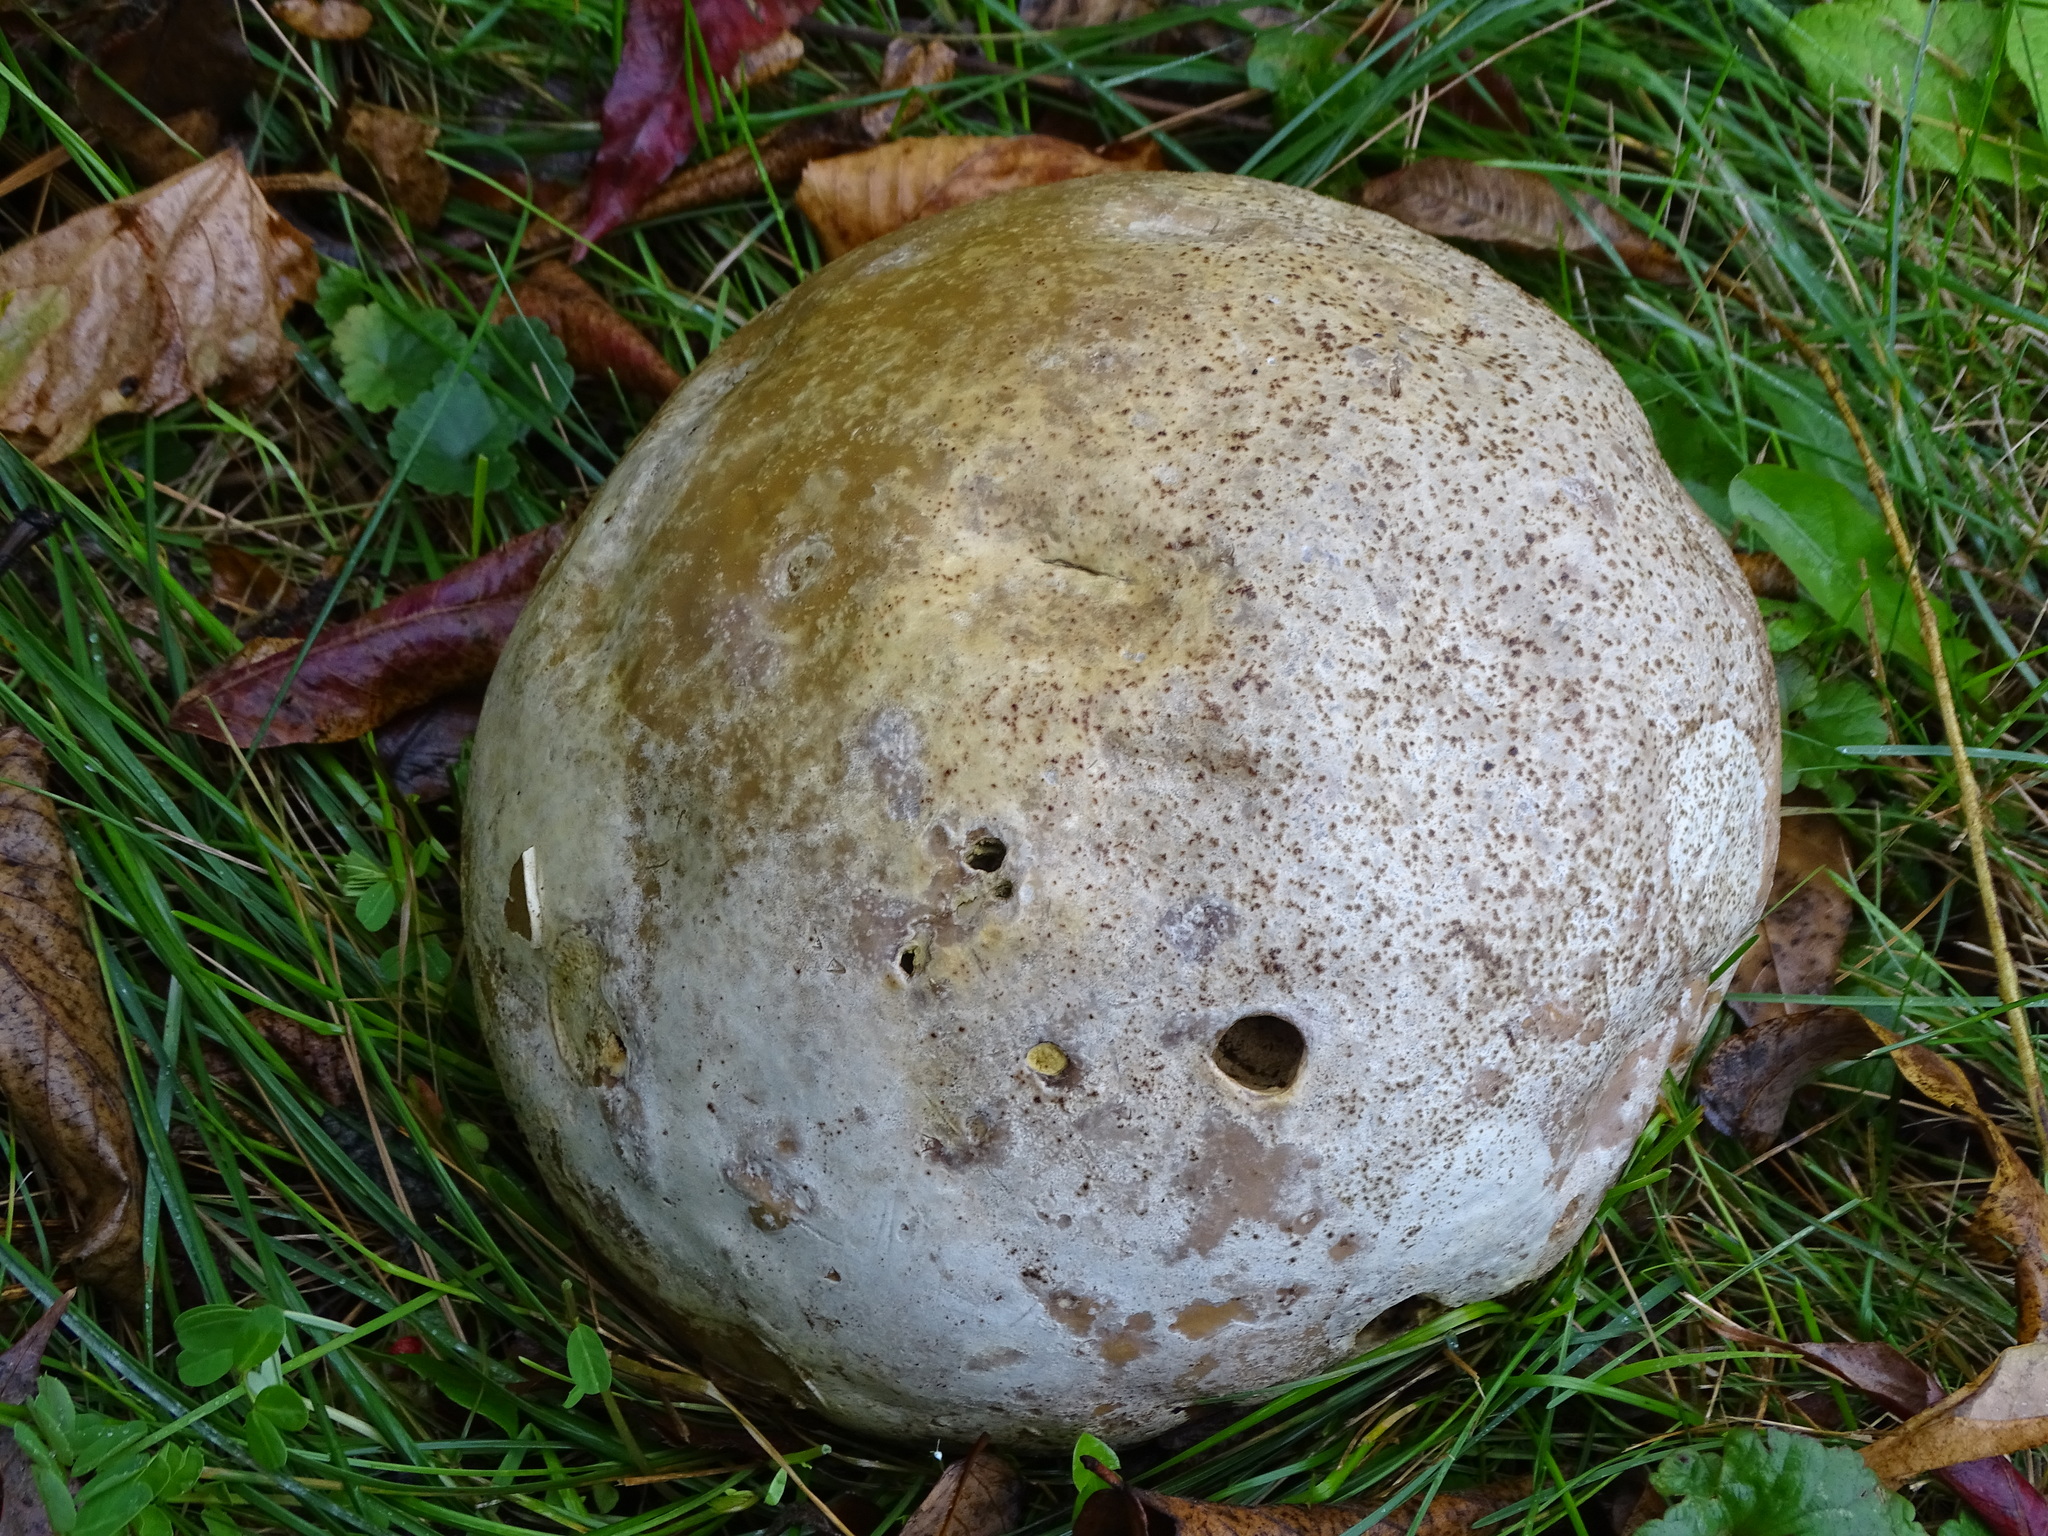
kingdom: Fungi
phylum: Basidiomycota
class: Agaricomycetes
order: Agaricales
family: Lycoperdaceae
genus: Calvatia
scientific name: Calvatia gigantea
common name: Giant puffball
